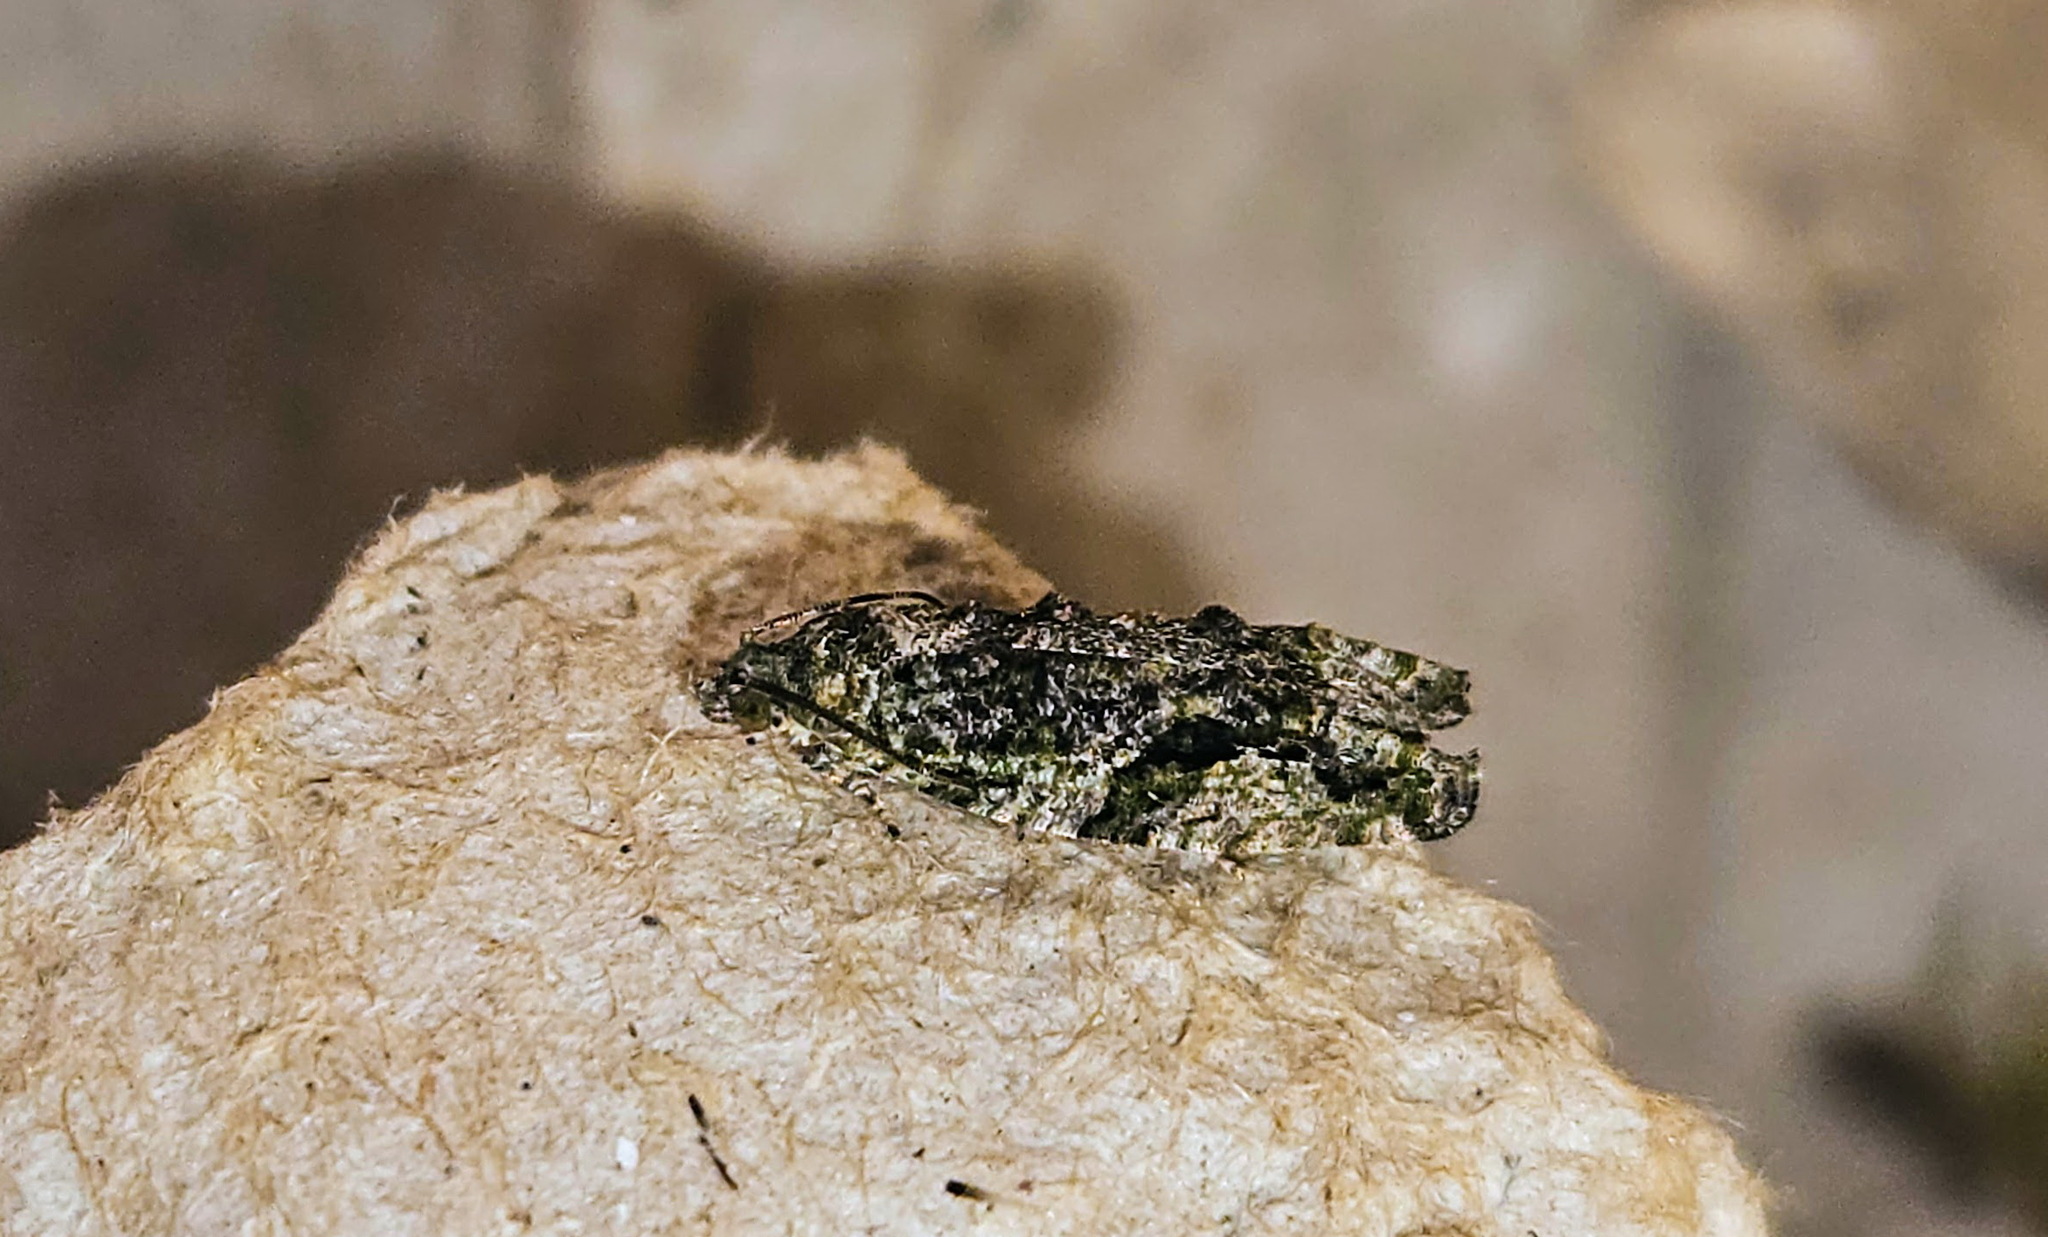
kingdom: Animalia
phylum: Arthropoda
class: Insecta
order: Lepidoptera
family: Tortricidae
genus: Proteoteras
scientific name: Proteoteras aesculana
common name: Maple twig borer moth
